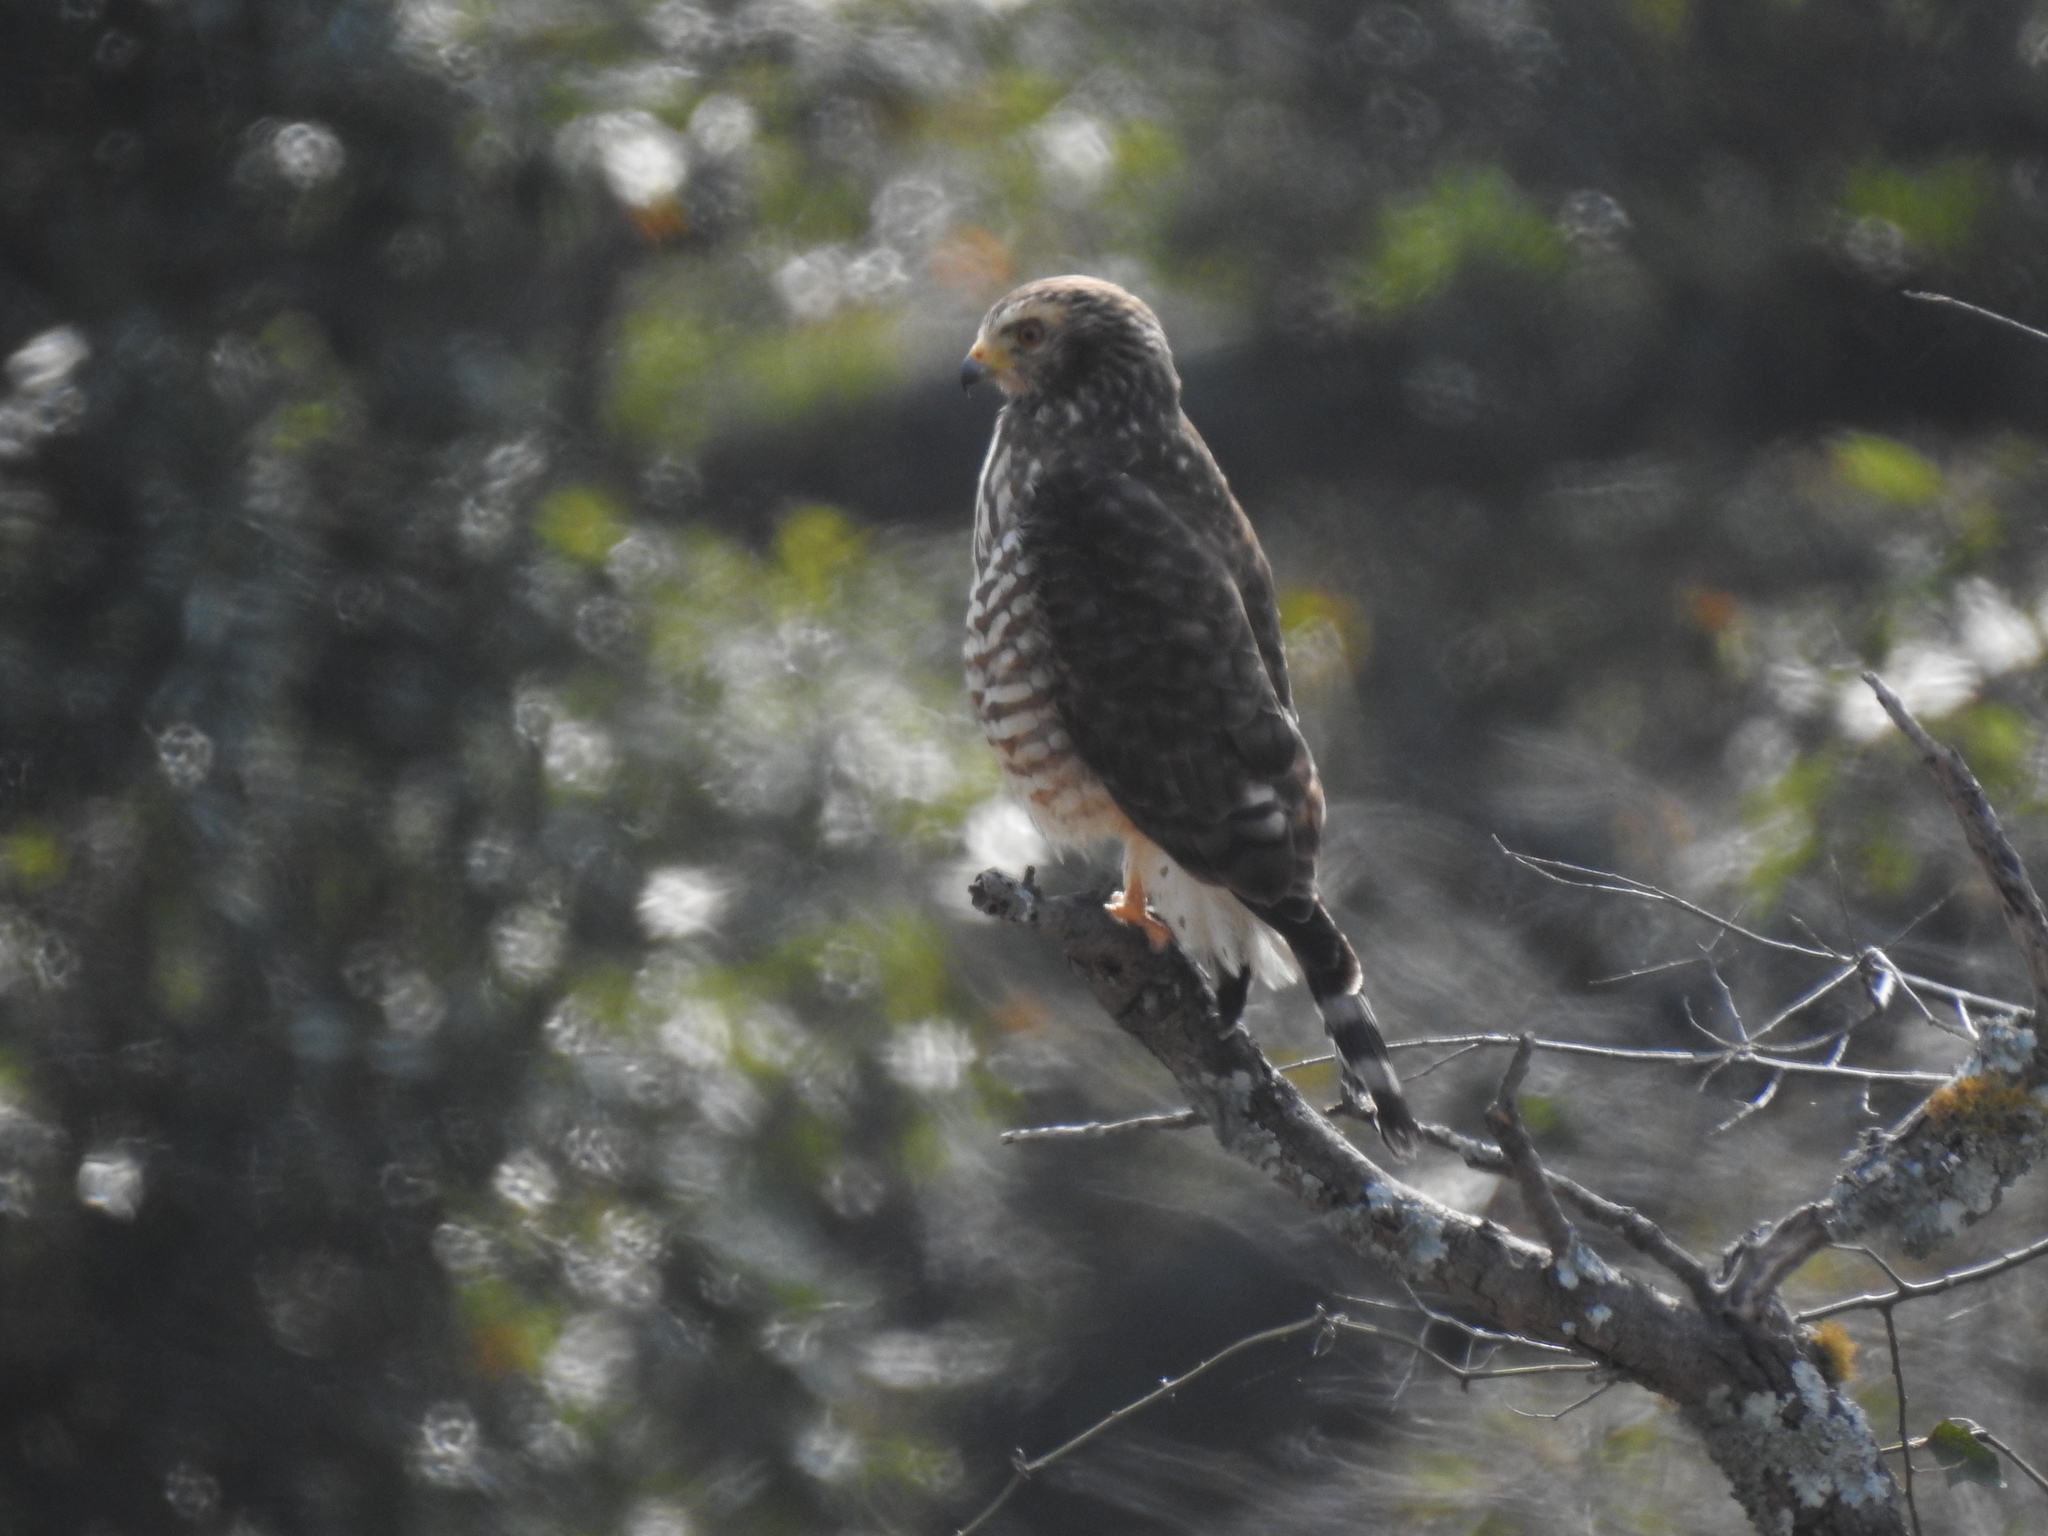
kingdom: Animalia
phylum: Chordata
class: Aves
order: Accipitriformes
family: Accipitridae
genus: Rupornis
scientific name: Rupornis magnirostris
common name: Roadside hawk
